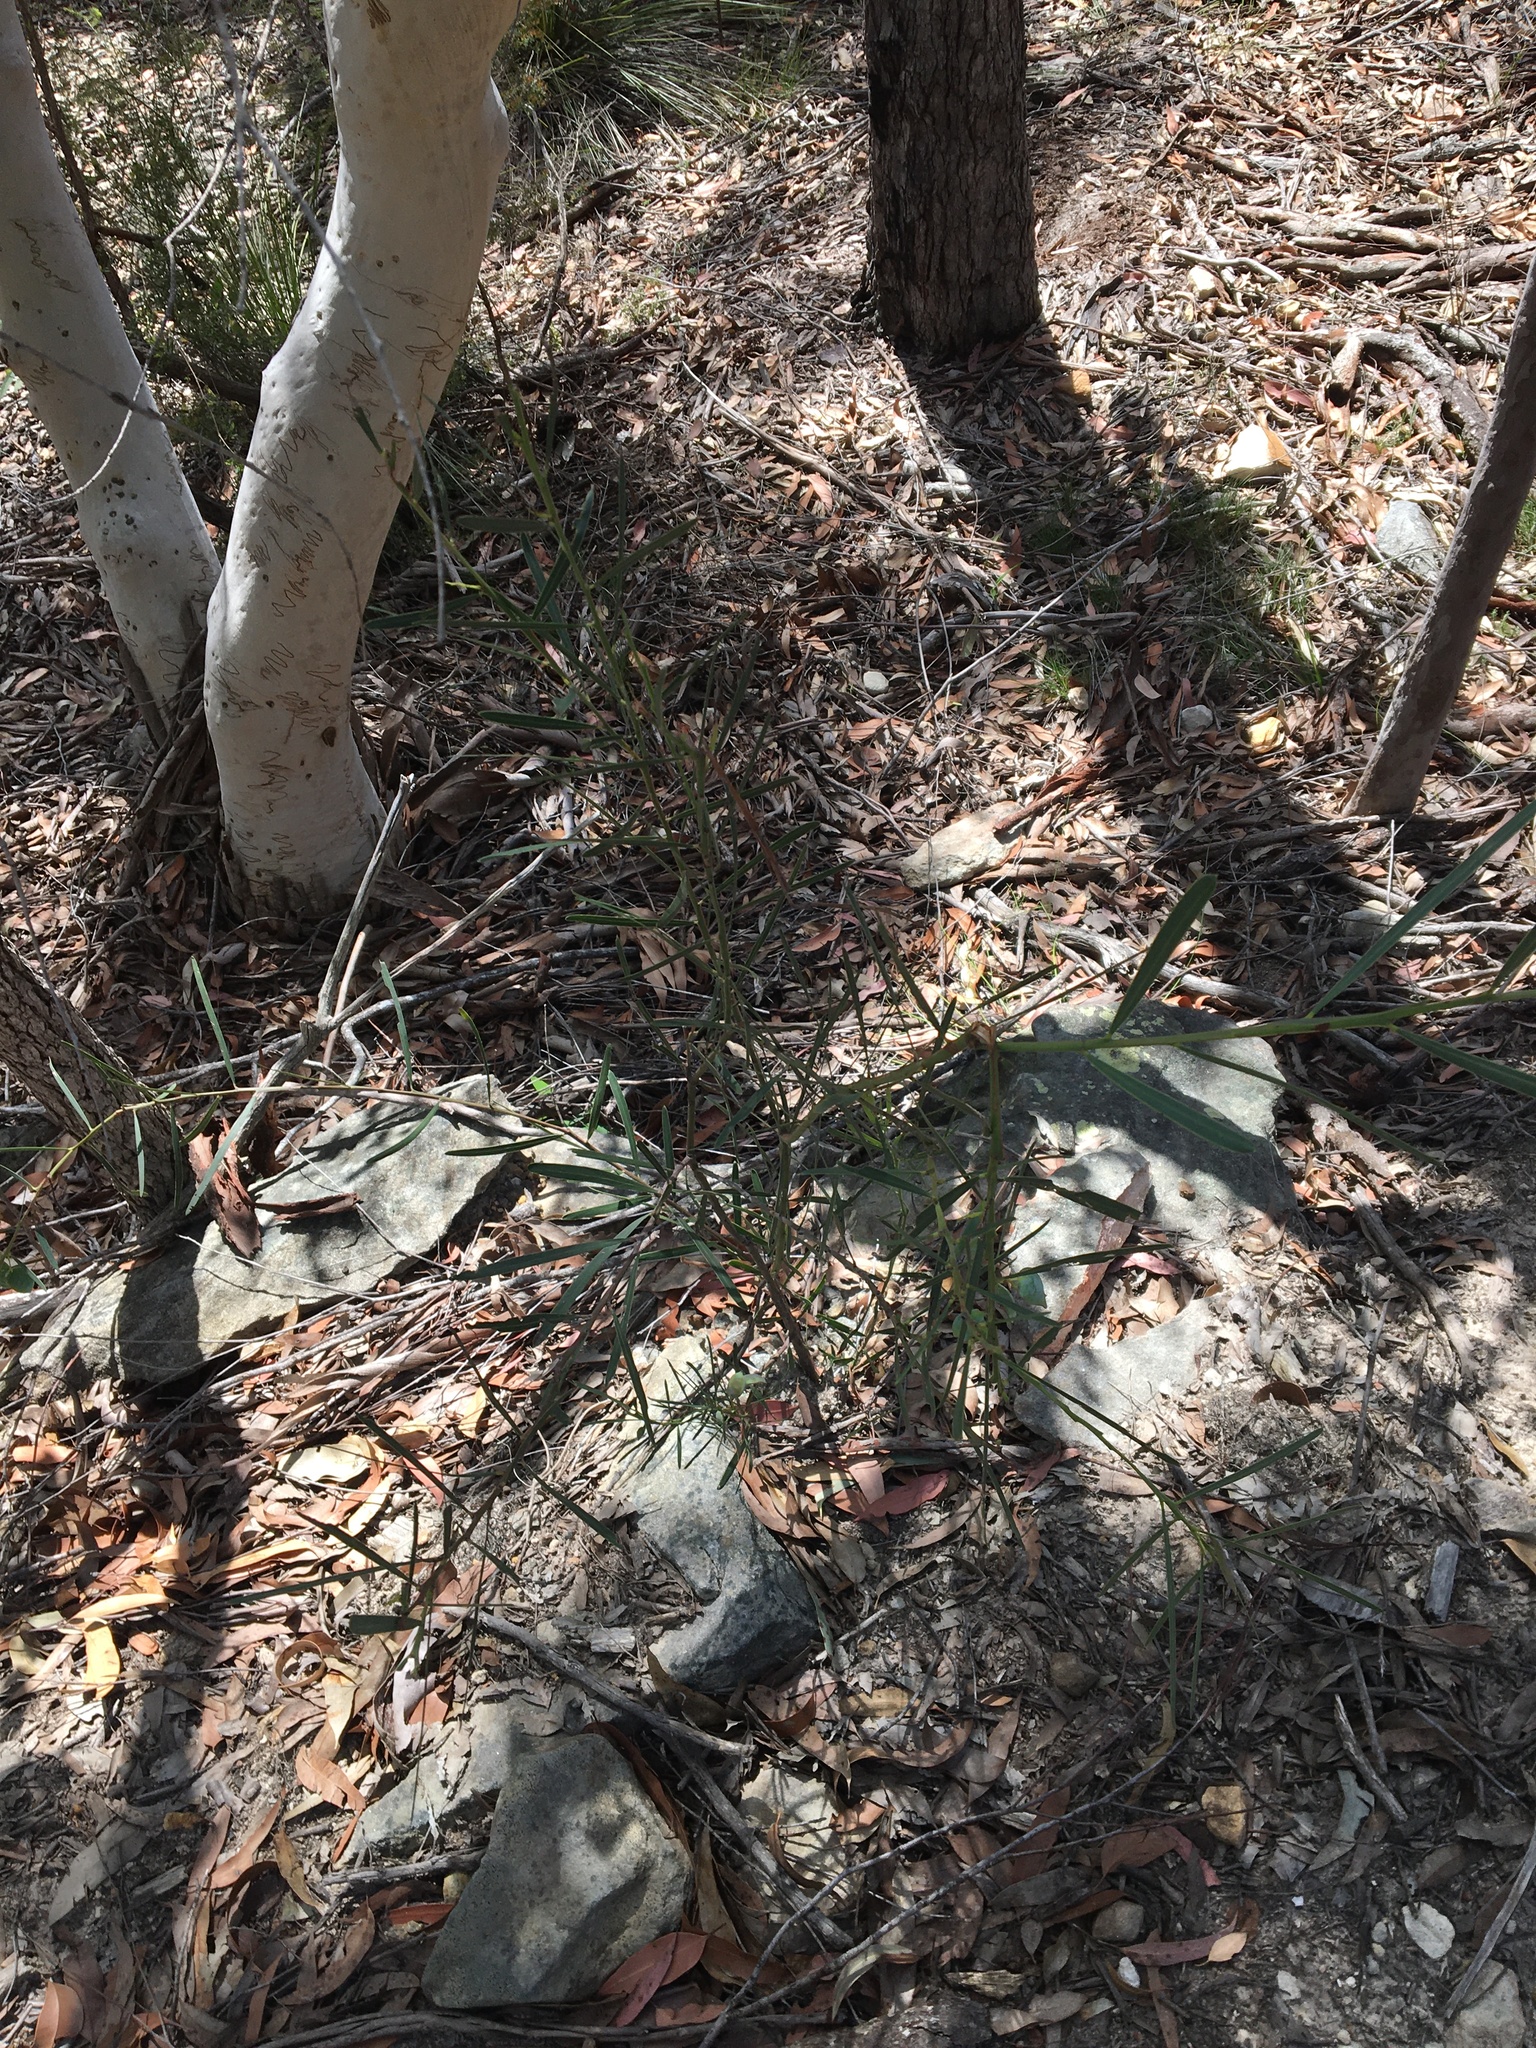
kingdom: Plantae
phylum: Tracheophyta
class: Magnoliopsida
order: Fabales
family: Fabaceae
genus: Acacia
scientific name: Acacia suaveolens
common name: Sweet acacia
